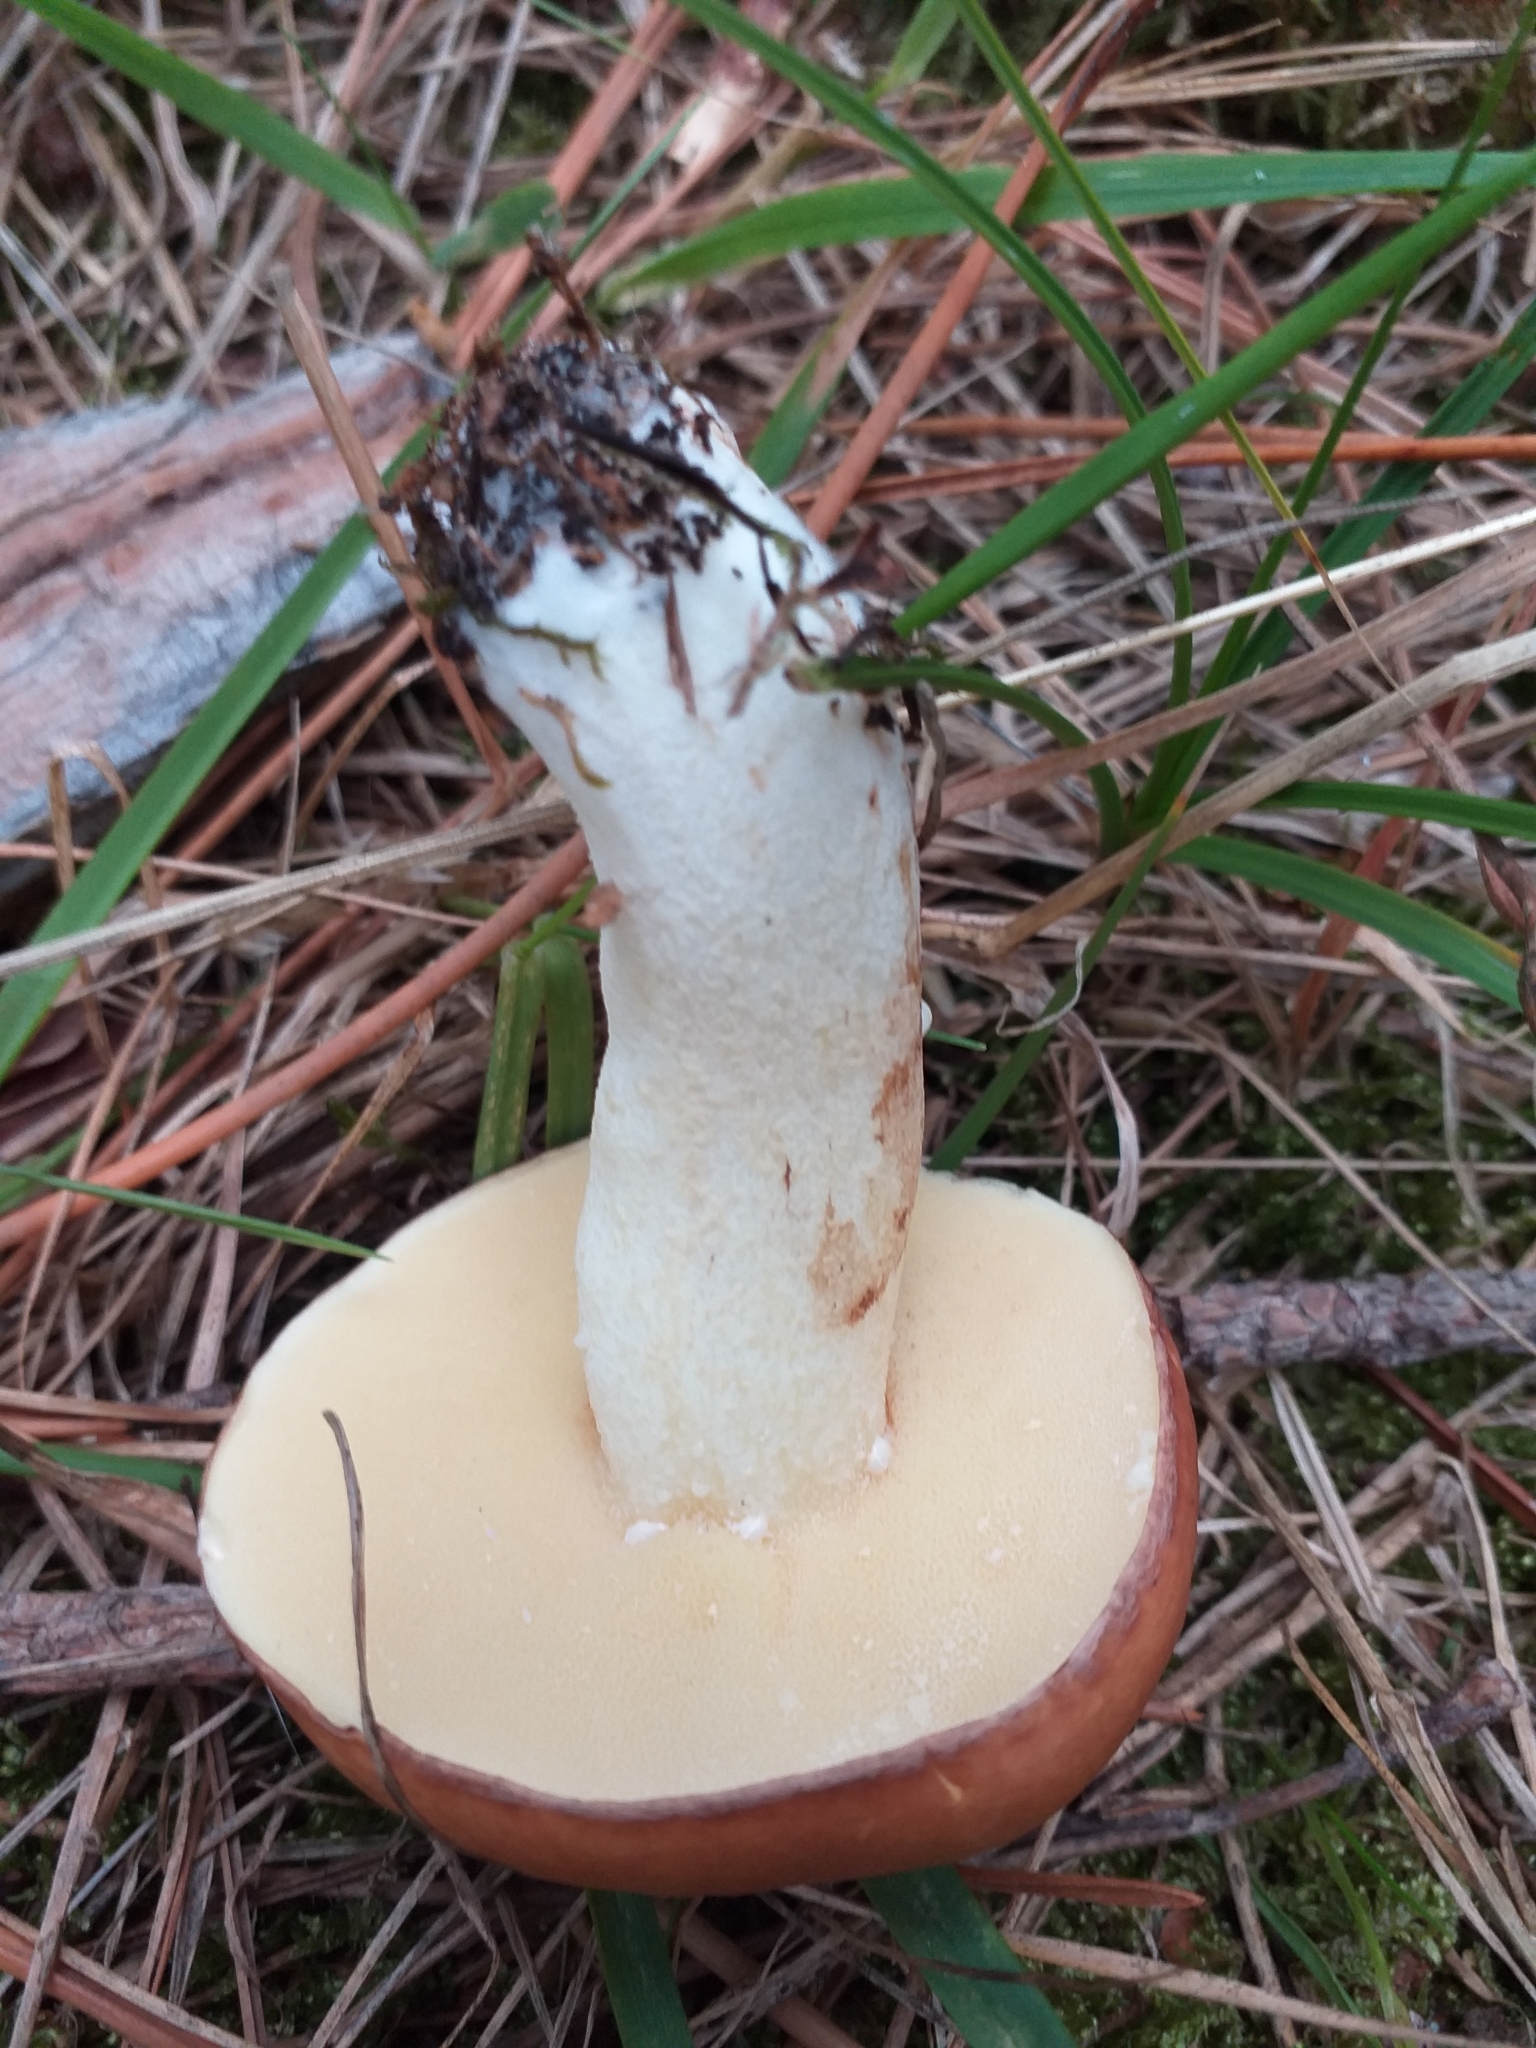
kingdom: Fungi
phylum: Basidiomycota
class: Agaricomycetes
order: Boletales
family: Suillaceae
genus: Suillus
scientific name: Suillus granulatus
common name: Weeping bolete
